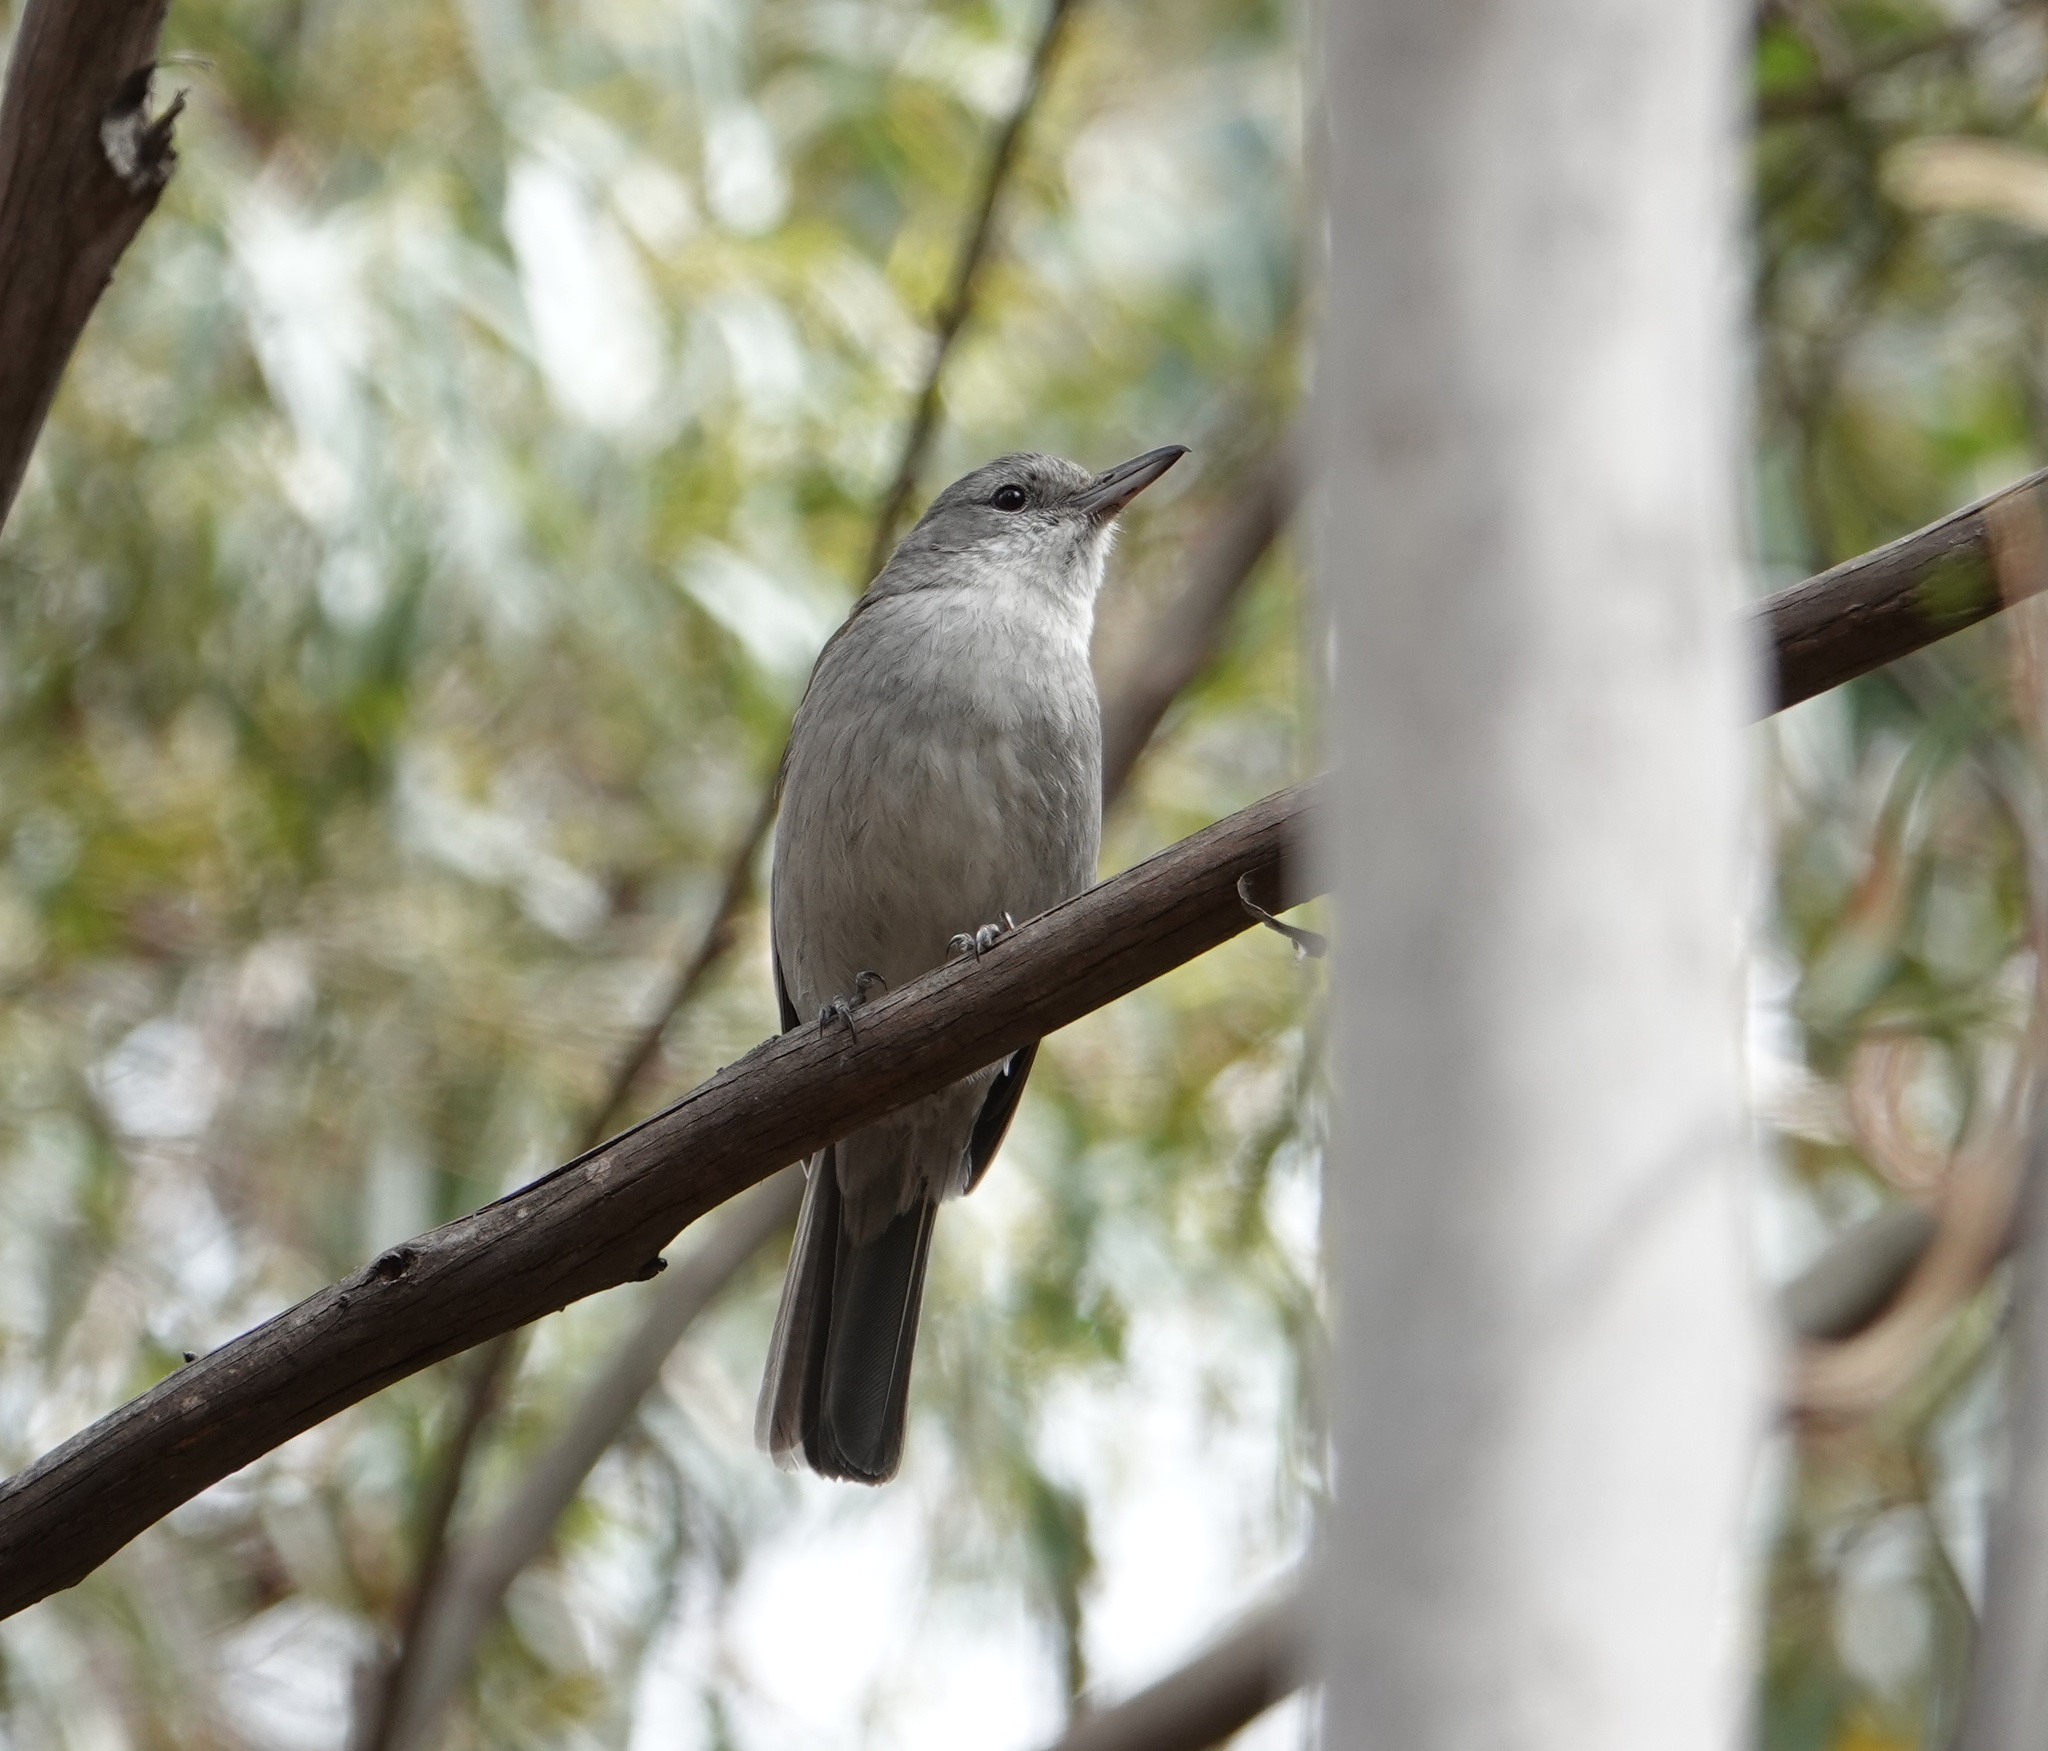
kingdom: Animalia
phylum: Chordata
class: Aves
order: Passeriformes
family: Pachycephalidae
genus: Colluricincla
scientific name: Colluricincla harmonica
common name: Grey shrikethrush
